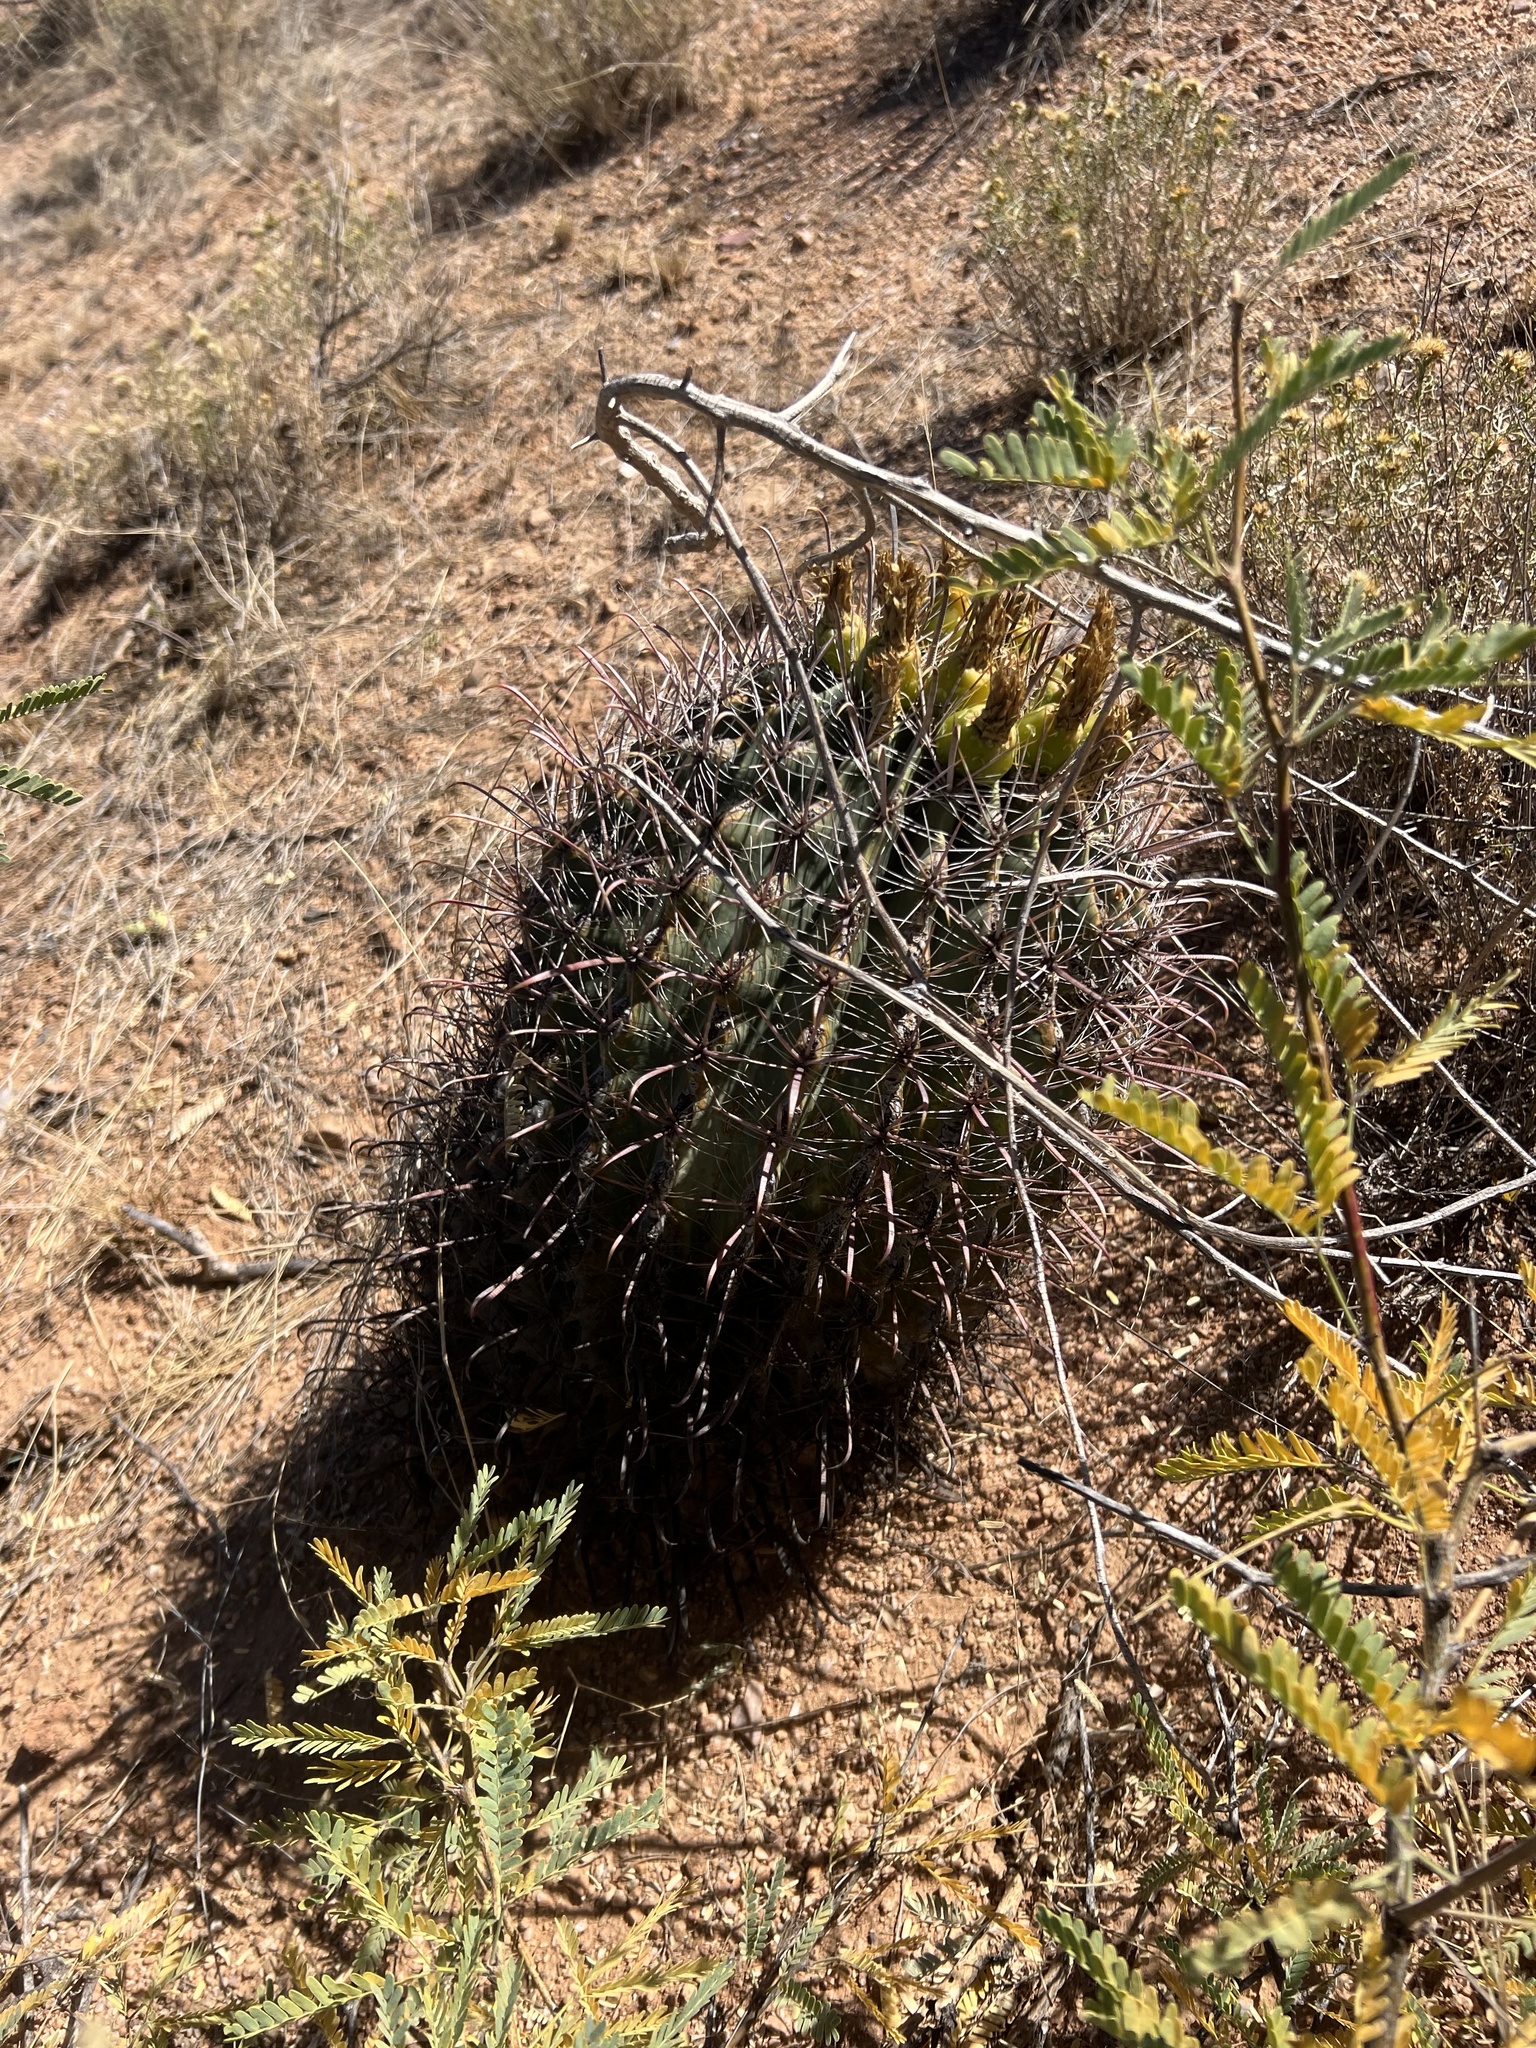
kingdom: Plantae
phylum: Tracheophyta
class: Magnoliopsida
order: Caryophyllales
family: Cactaceae
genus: Ferocactus
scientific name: Ferocactus wislizeni
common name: Candy barrel cactus
